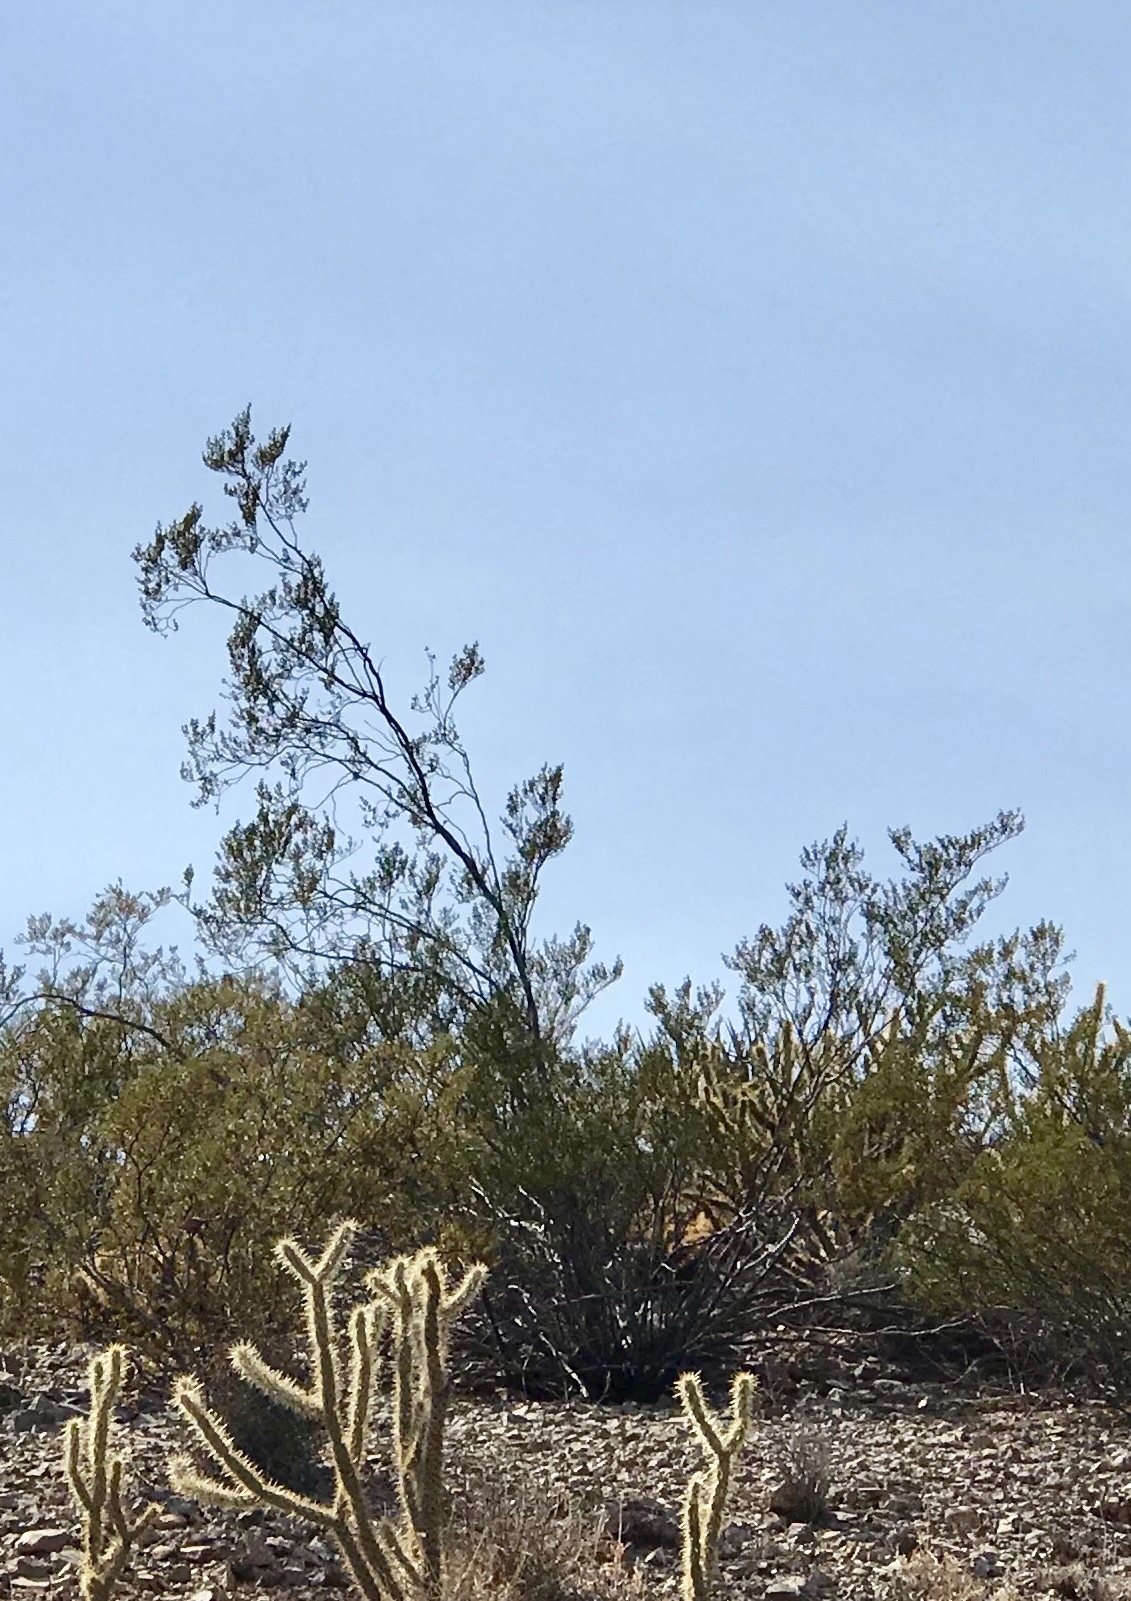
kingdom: Plantae
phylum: Tracheophyta
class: Magnoliopsida
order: Zygophyllales
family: Zygophyllaceae
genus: Larrea
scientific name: Larrea tridentata
